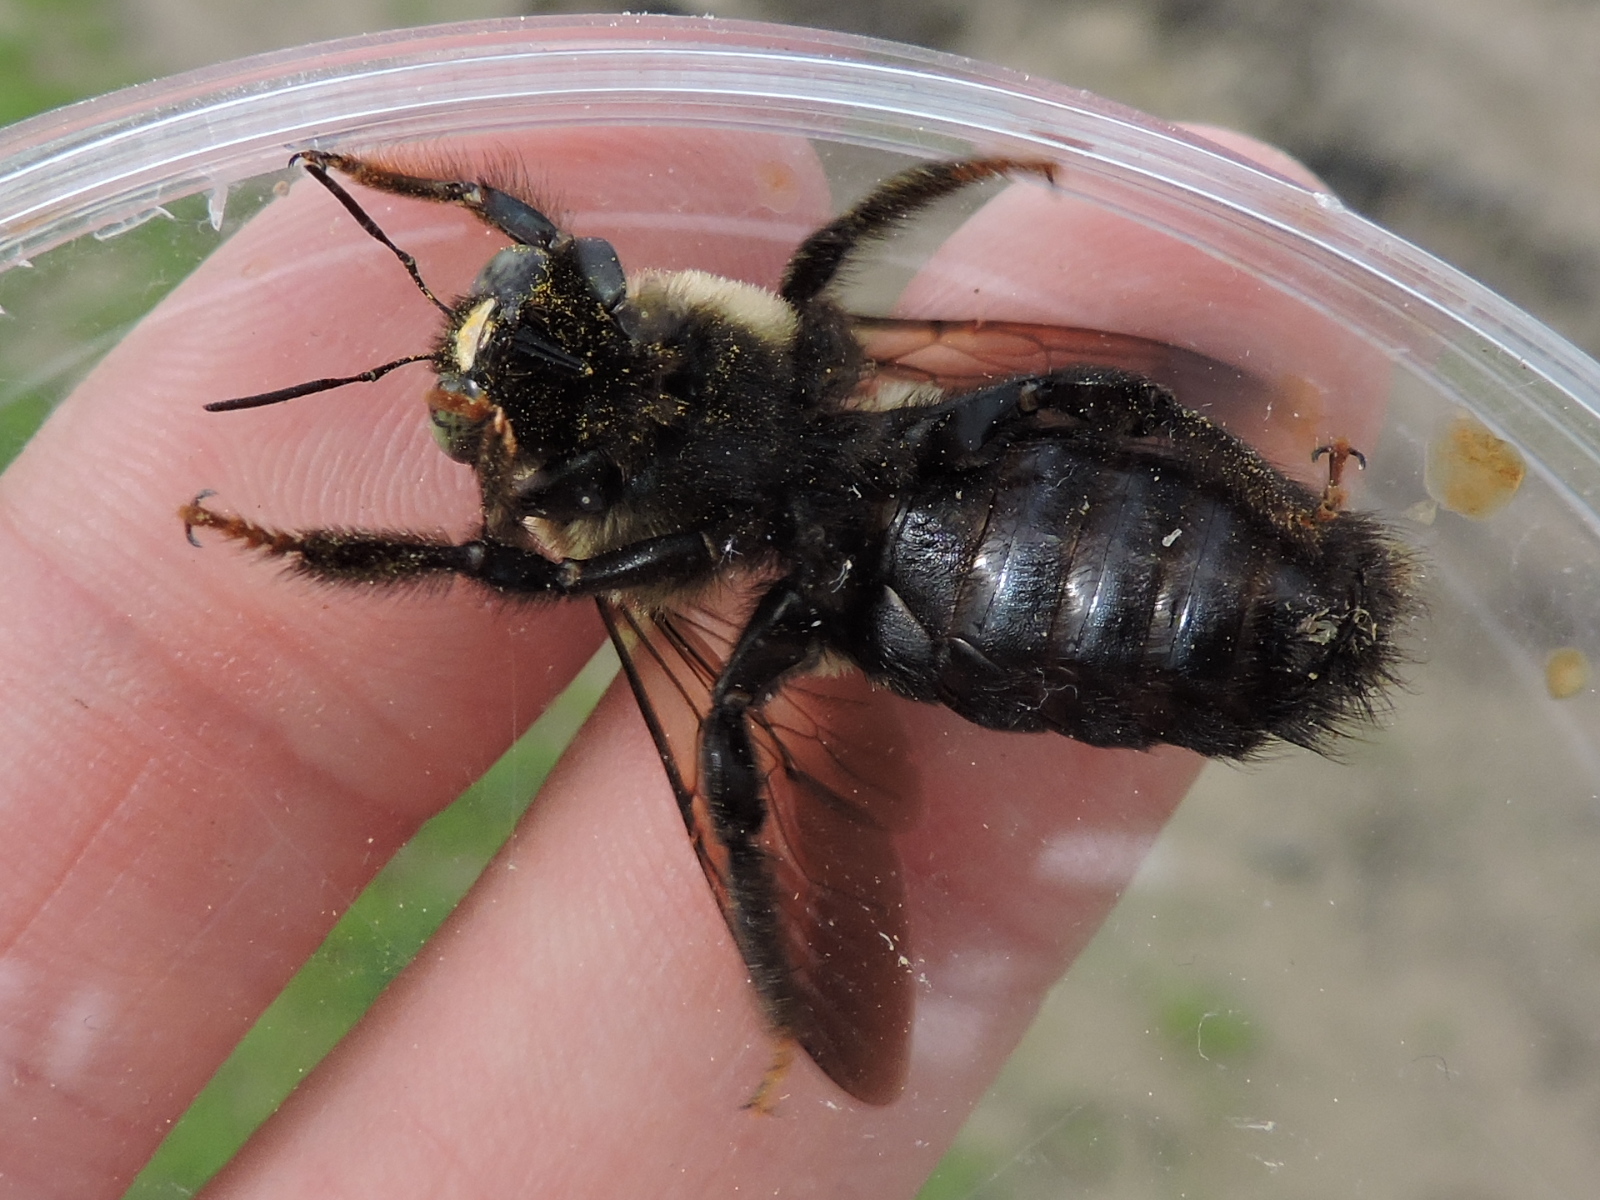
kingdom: Animalia
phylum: Arthropoda
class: Insecta
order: Hymenoptera
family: Apidae
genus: Xylocopa
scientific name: Xylocopa virginica
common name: Carpenter bee
